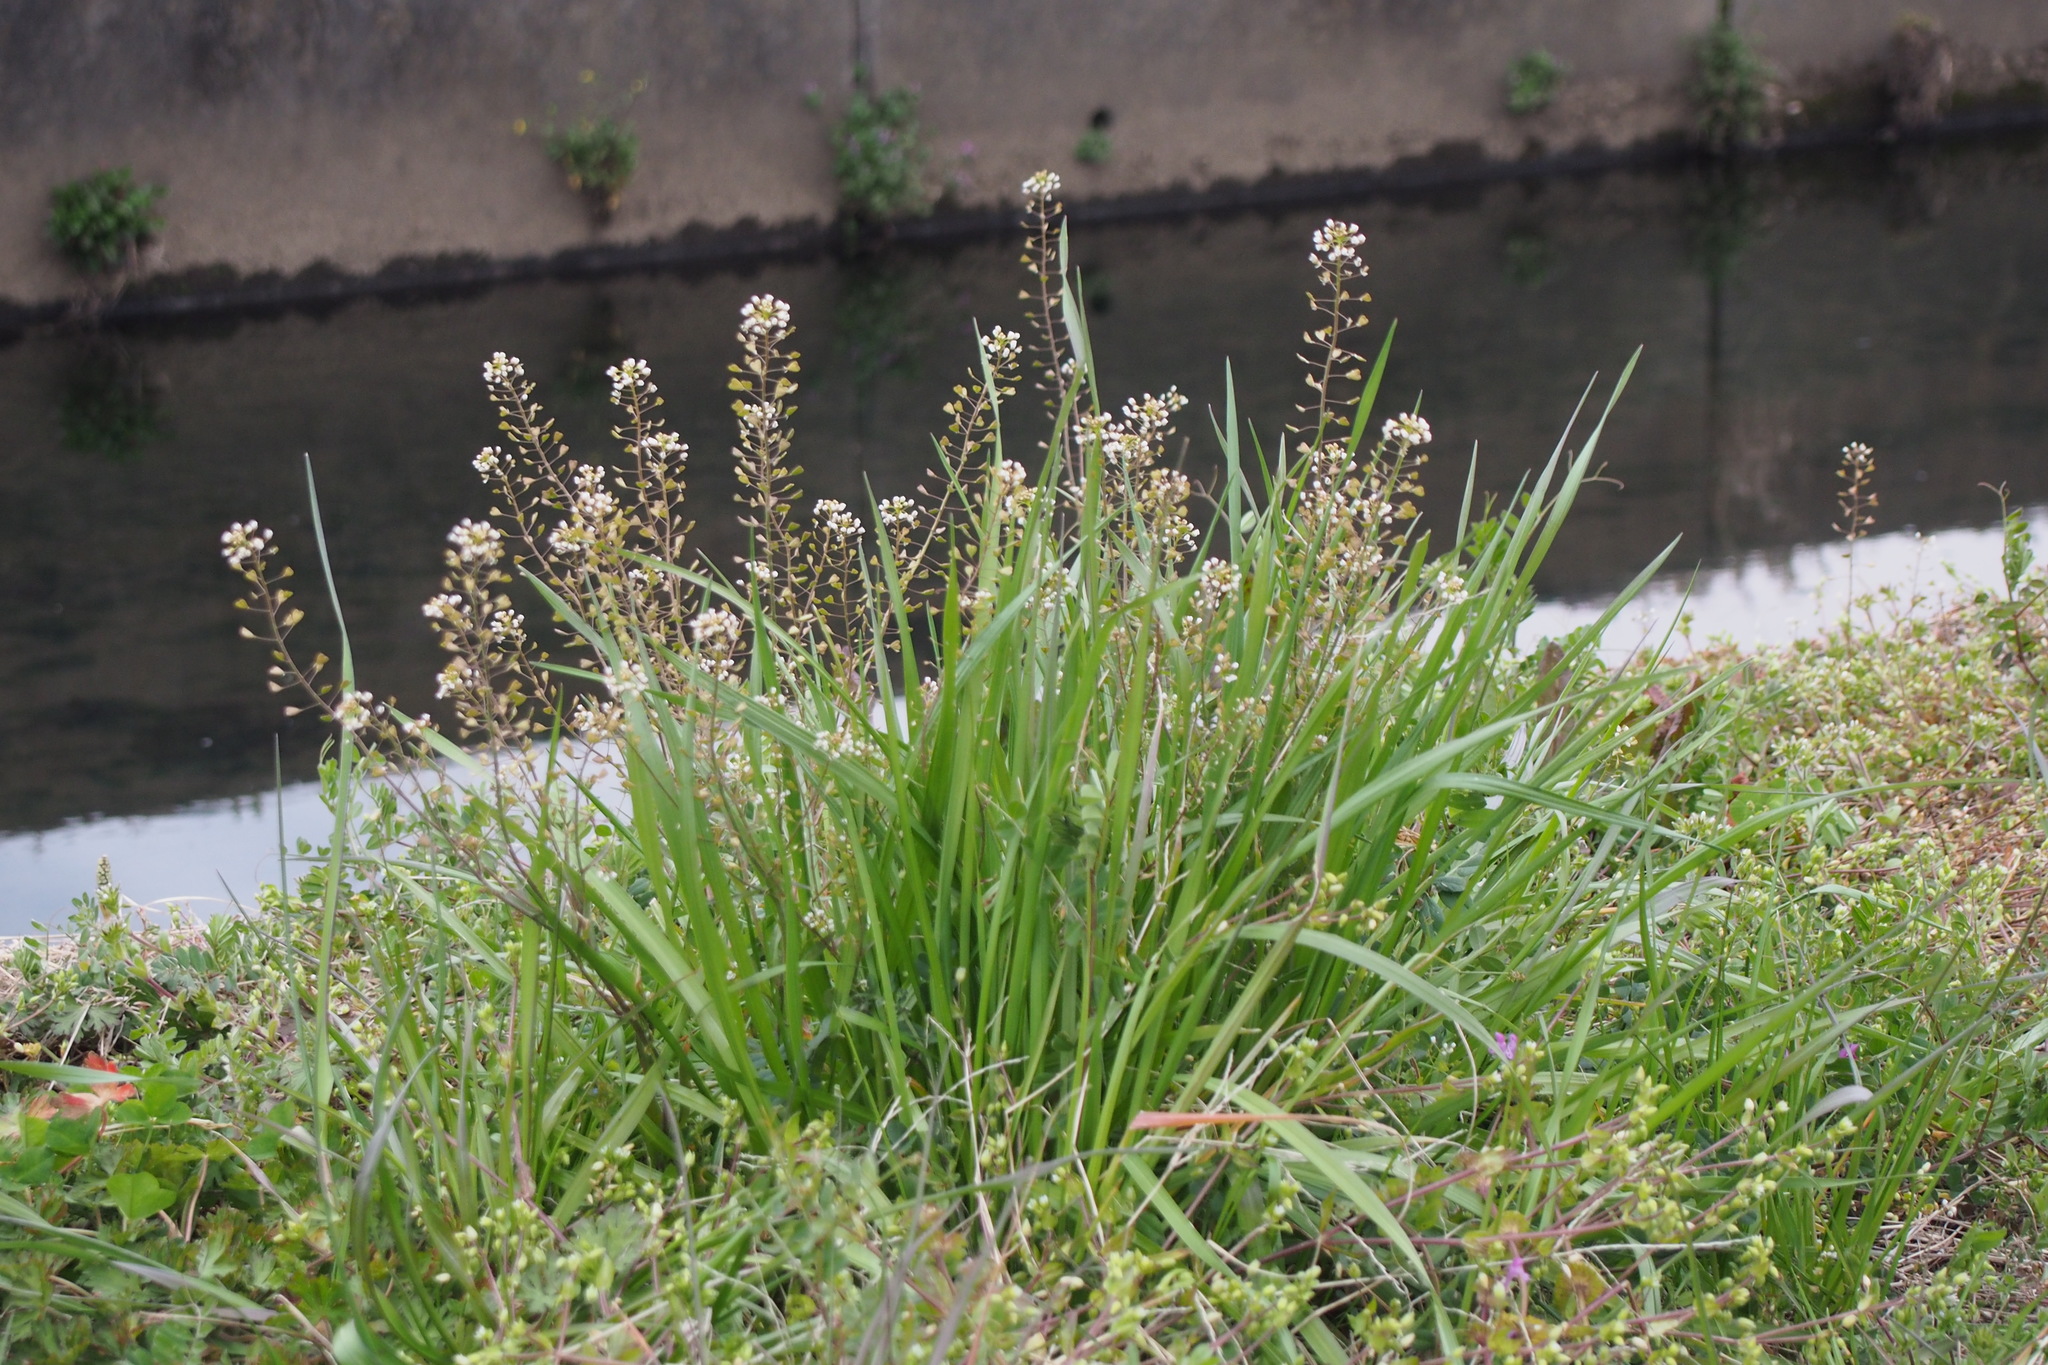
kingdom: Plantae
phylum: Tracheophyta
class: Magnoliopsida
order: Brassicales
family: Brassicaceae
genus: Capsella
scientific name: Capsella bursa-pastoris
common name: Shepherd's purse
